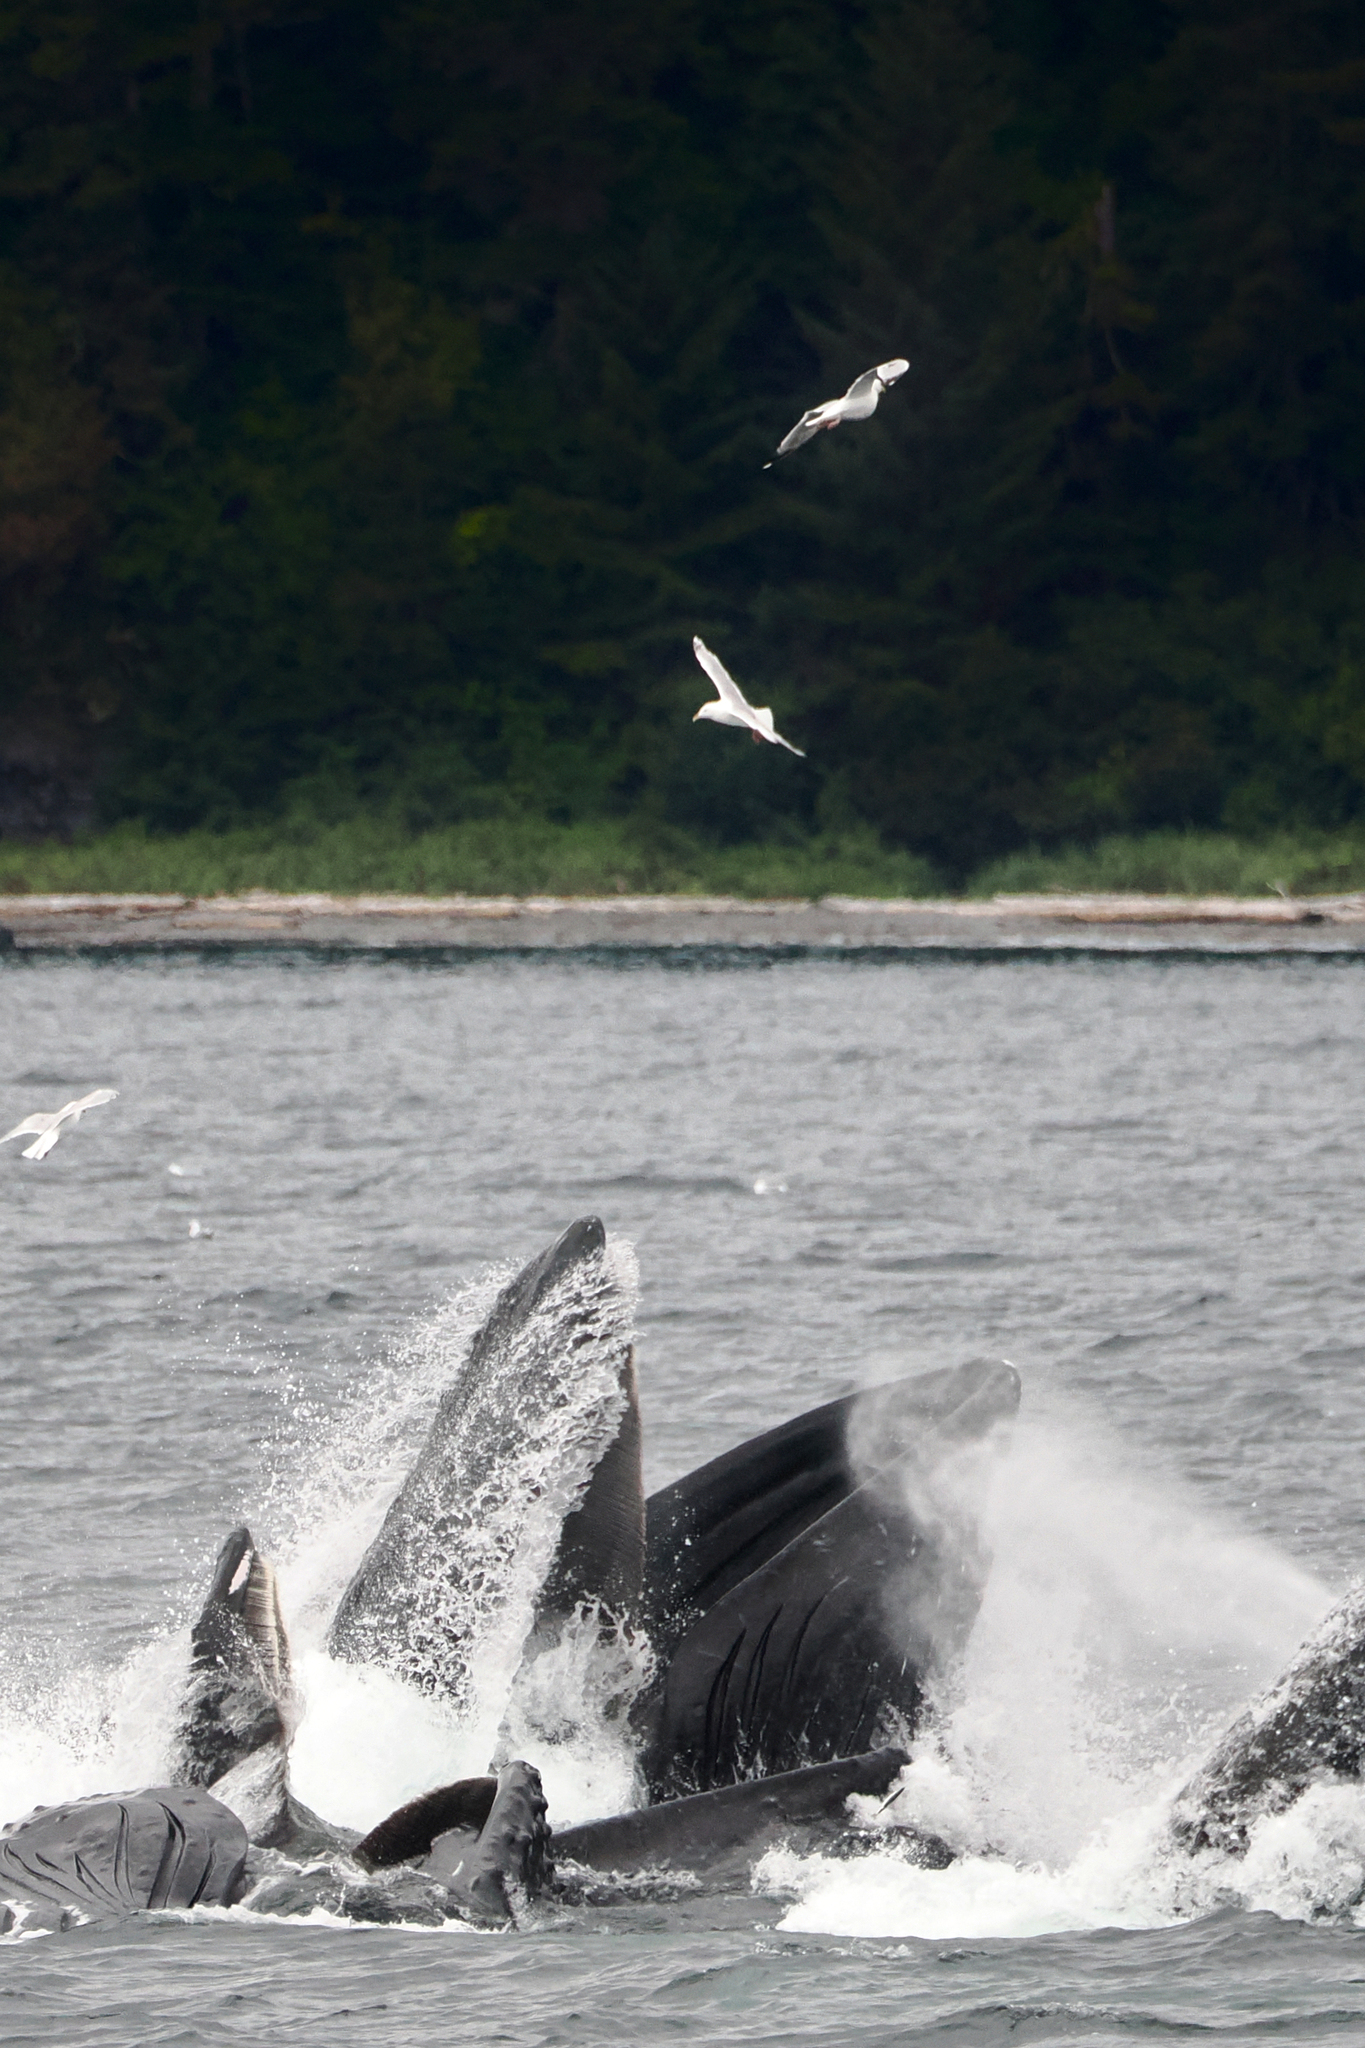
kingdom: Animalia
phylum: Chordata
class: Mammalia
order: Cetacea
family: Balaenopteridae
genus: Megaptera
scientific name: Megaptera novaeangliae
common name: Humpback whale
